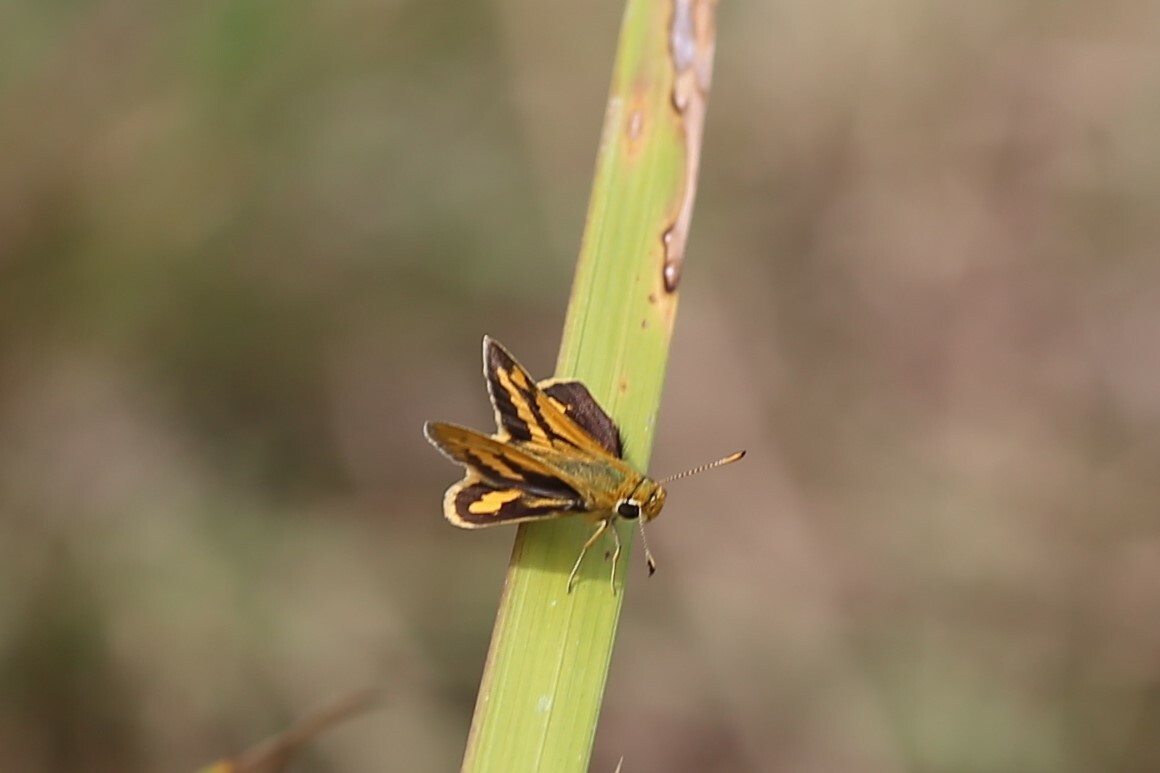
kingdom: Animalia
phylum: Arthropoda
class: Insecta
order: Lepidoptera
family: Hesperiidae
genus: Ocybadistes
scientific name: Ocybadistes flavovittata
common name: Narrow-brand grass-dart
